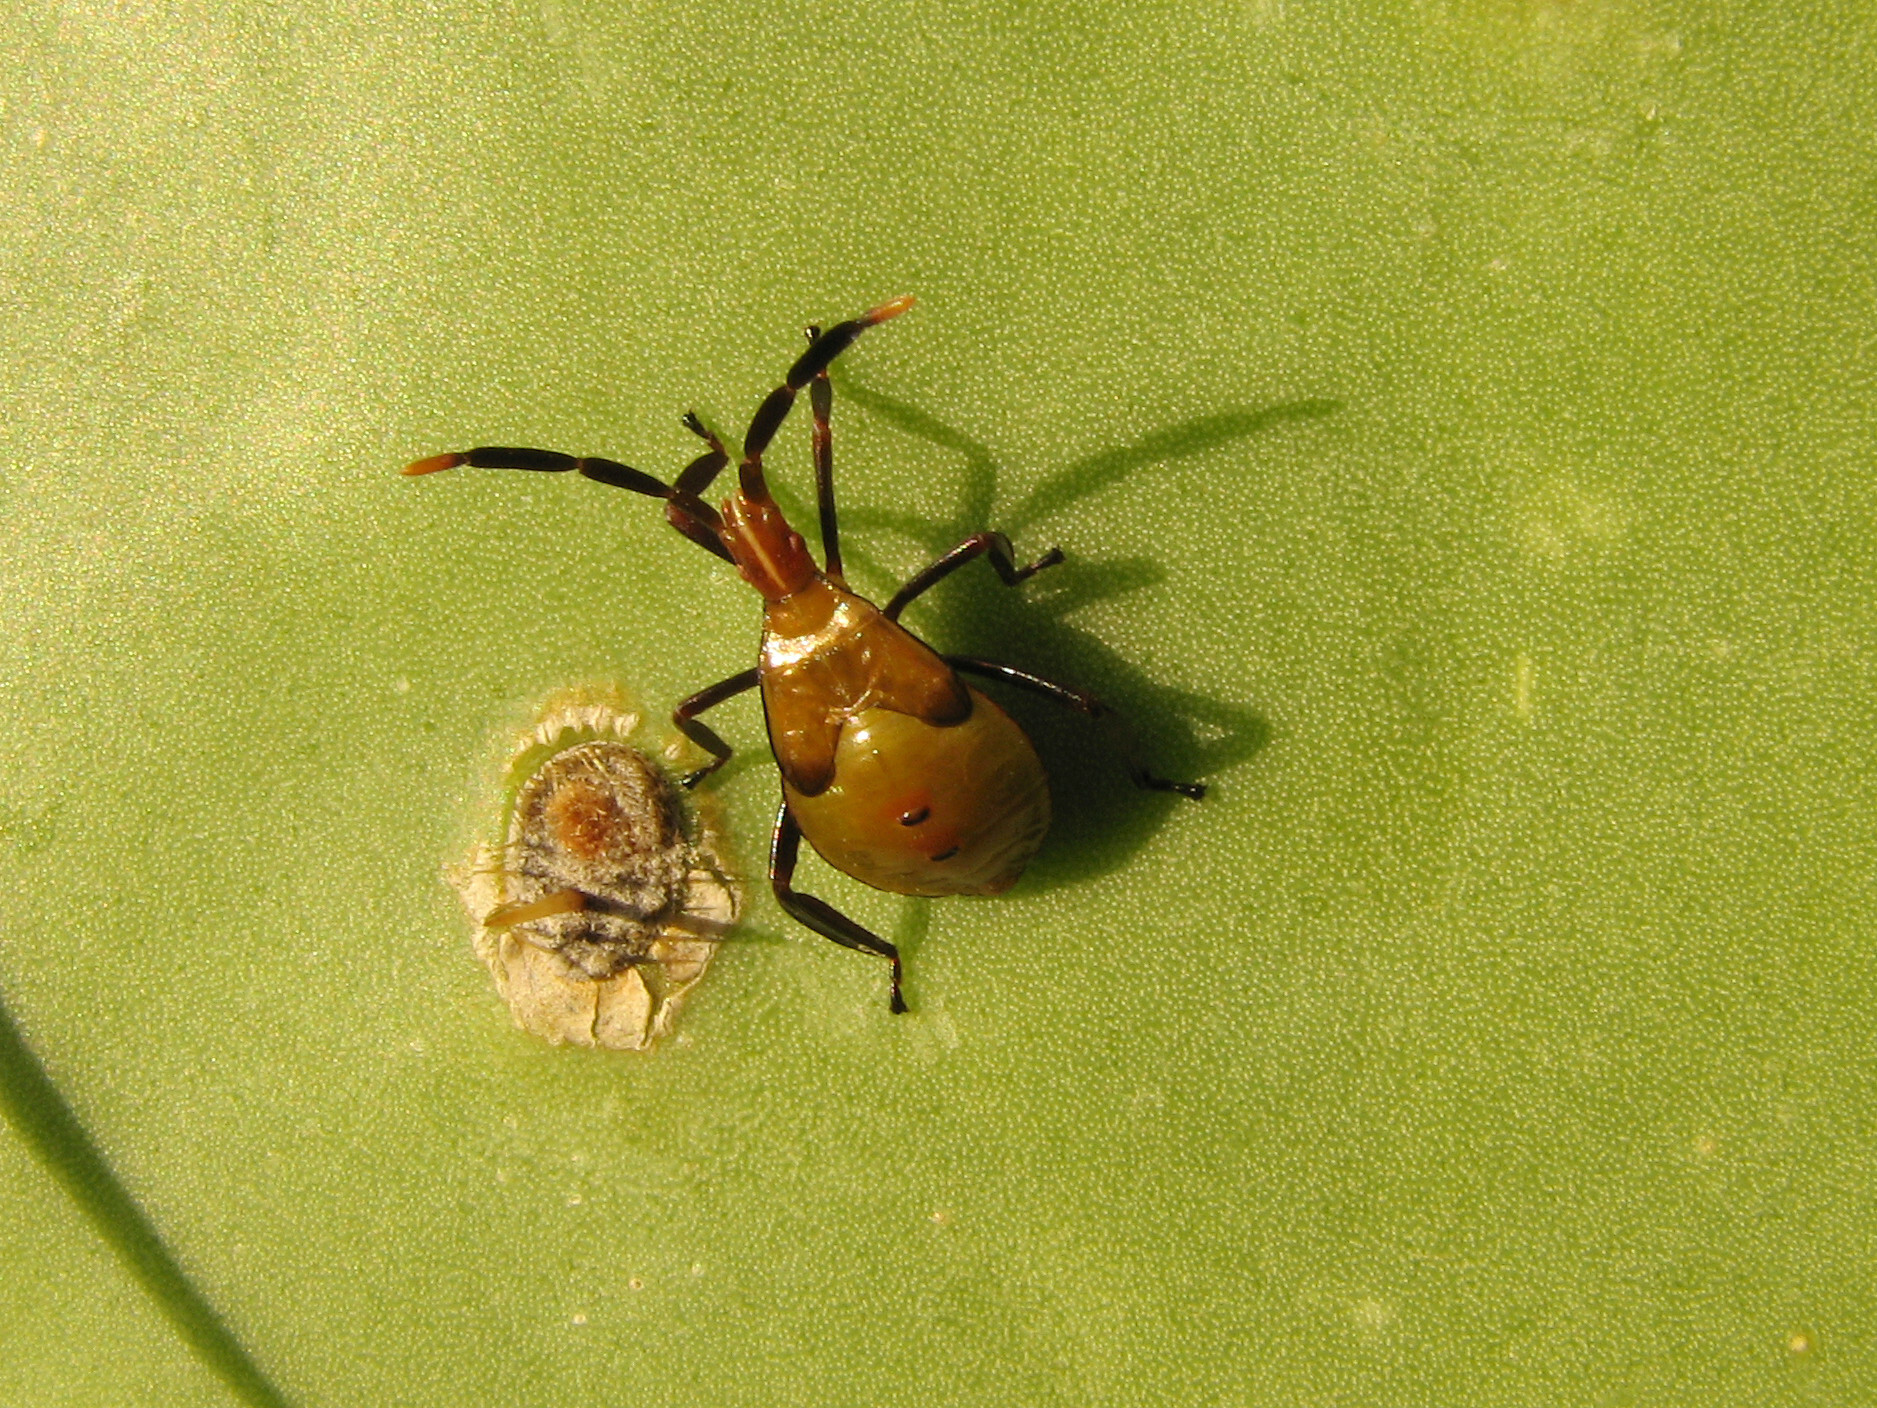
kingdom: Animalia
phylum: Arthropoda
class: Insecta
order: Hemiptera
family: Coreidae
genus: Chelinidea
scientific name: Chelinidea vittiger
